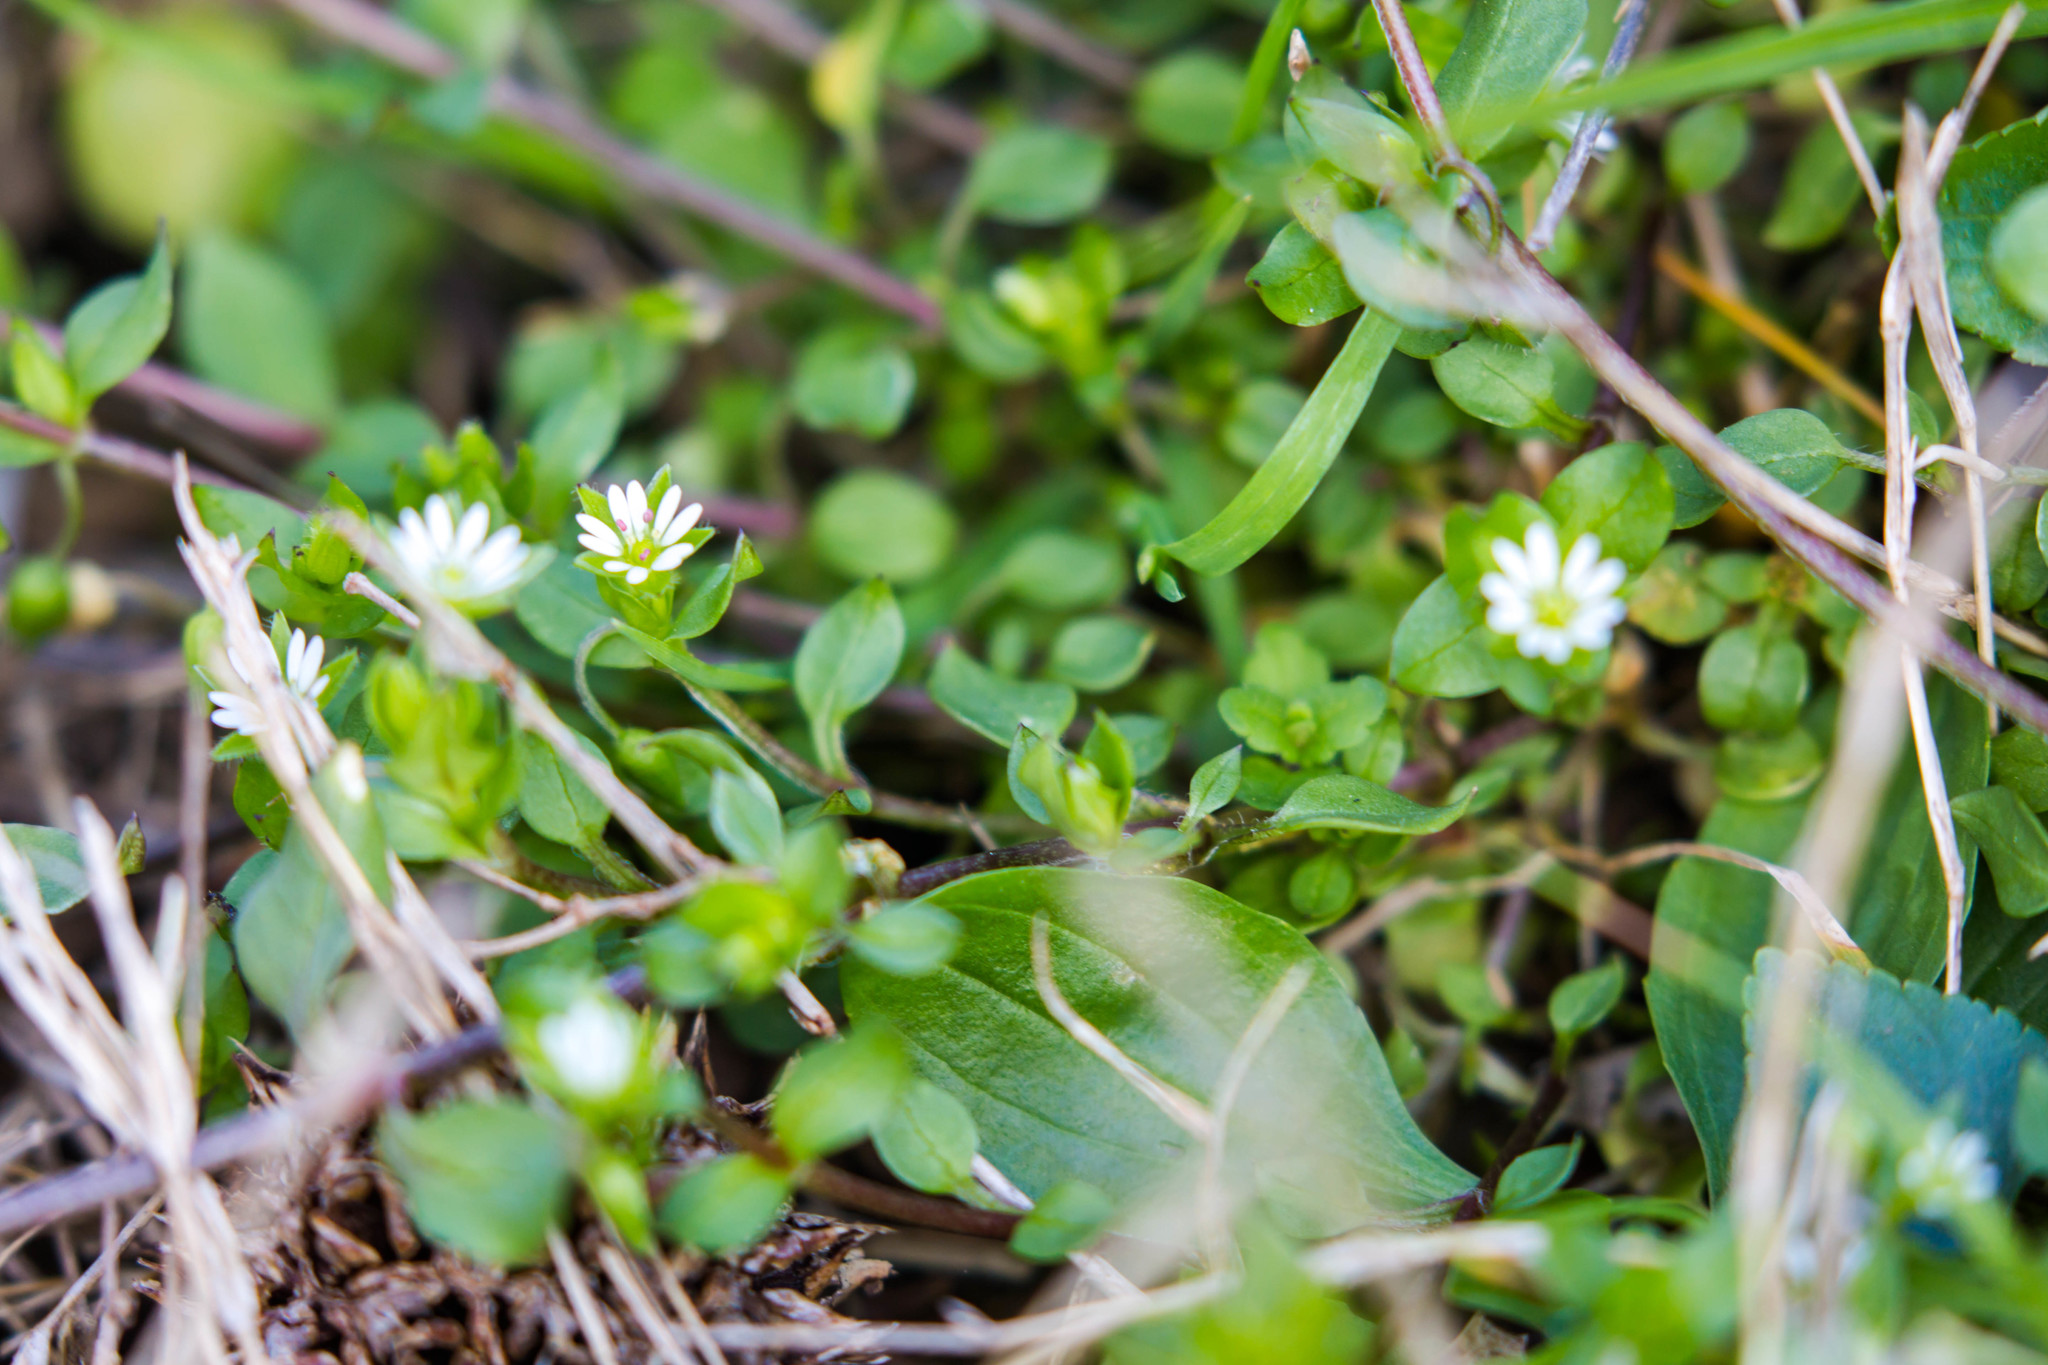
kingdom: Plantae
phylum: Tracheophyta
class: Magnoliopsida
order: Caryophyllales
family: Caryophyllaceae
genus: Stellaria
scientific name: Stellaria media
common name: Common chickweed
